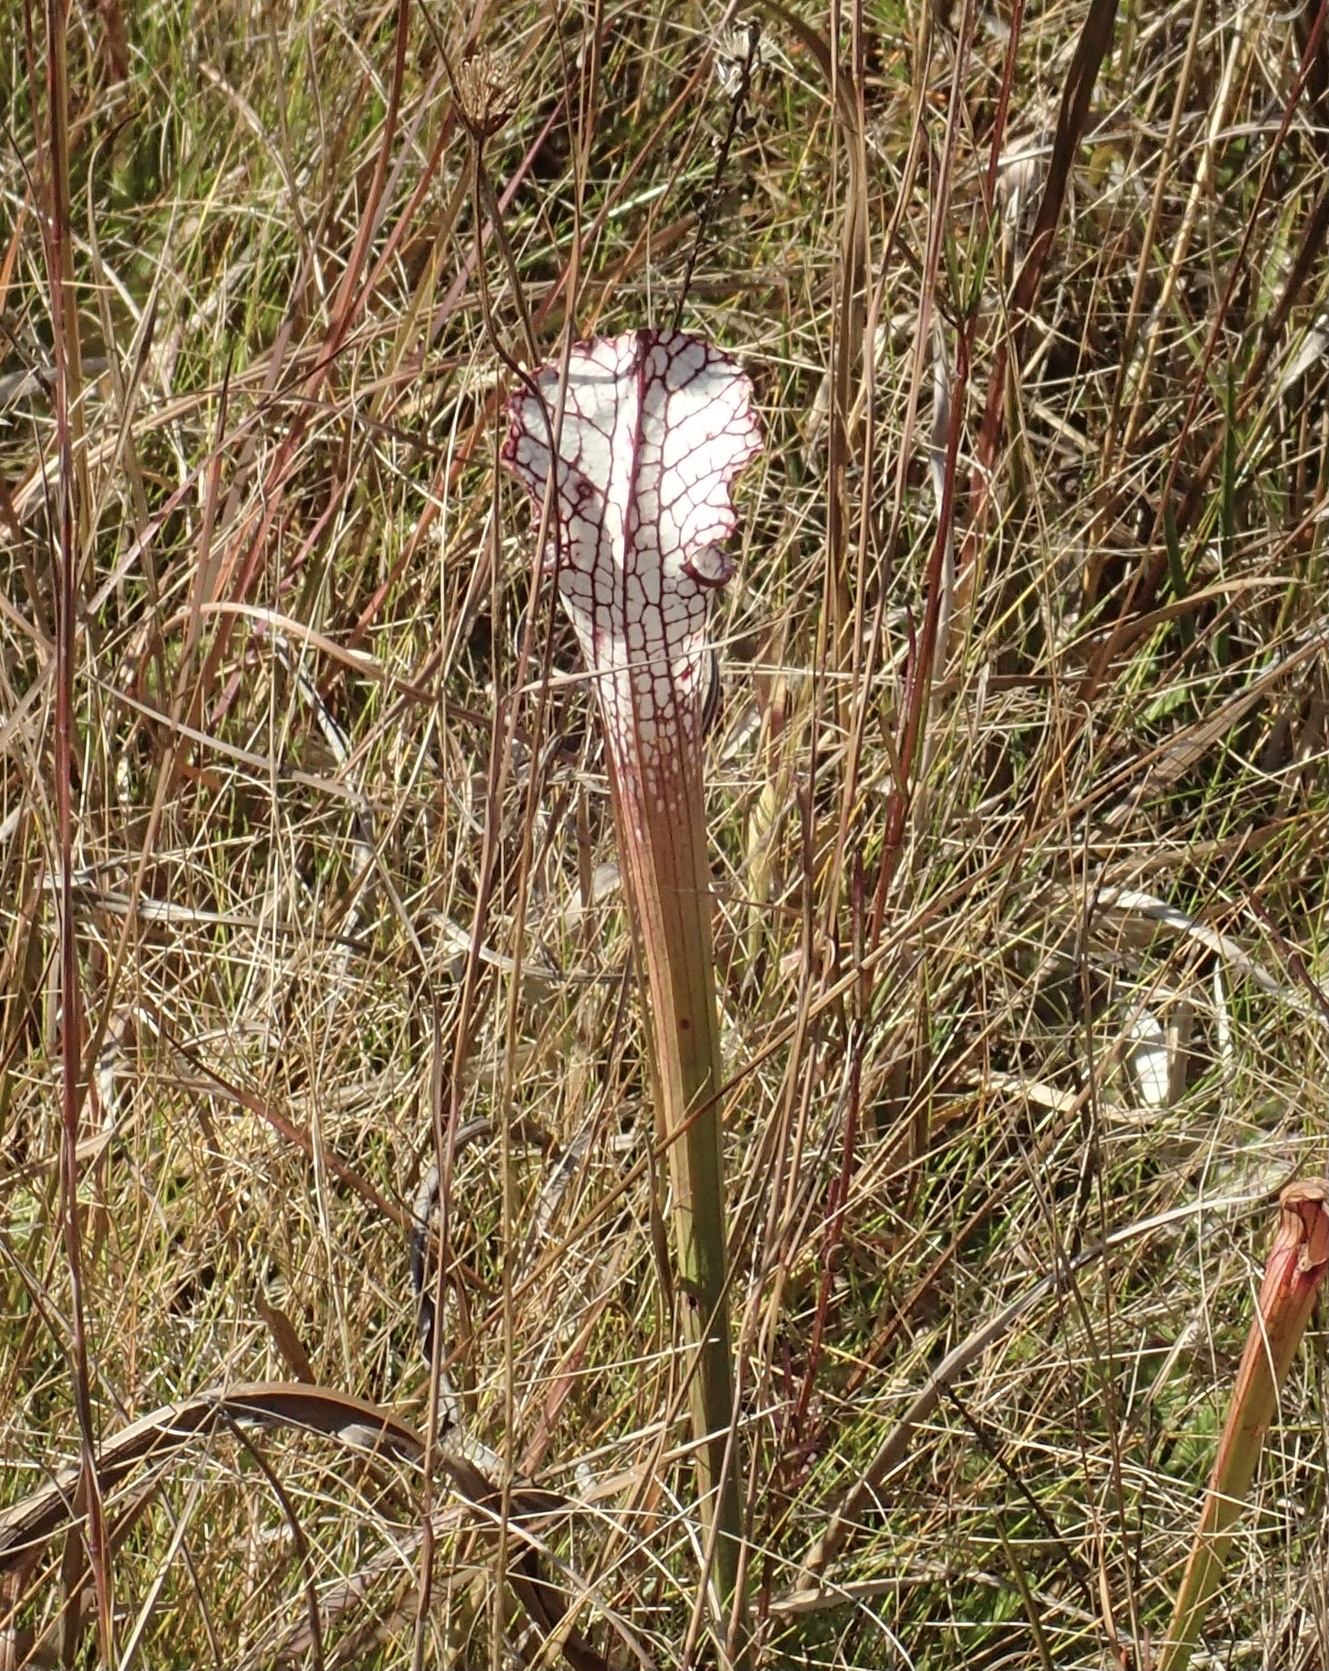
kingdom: Plantae
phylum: Tracheophyta
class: Magnoliopsida
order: Ericales
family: Sarraceniaceae
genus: Sarracenia
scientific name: Sarracenia leucophylla
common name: Purple trumpetleaf
